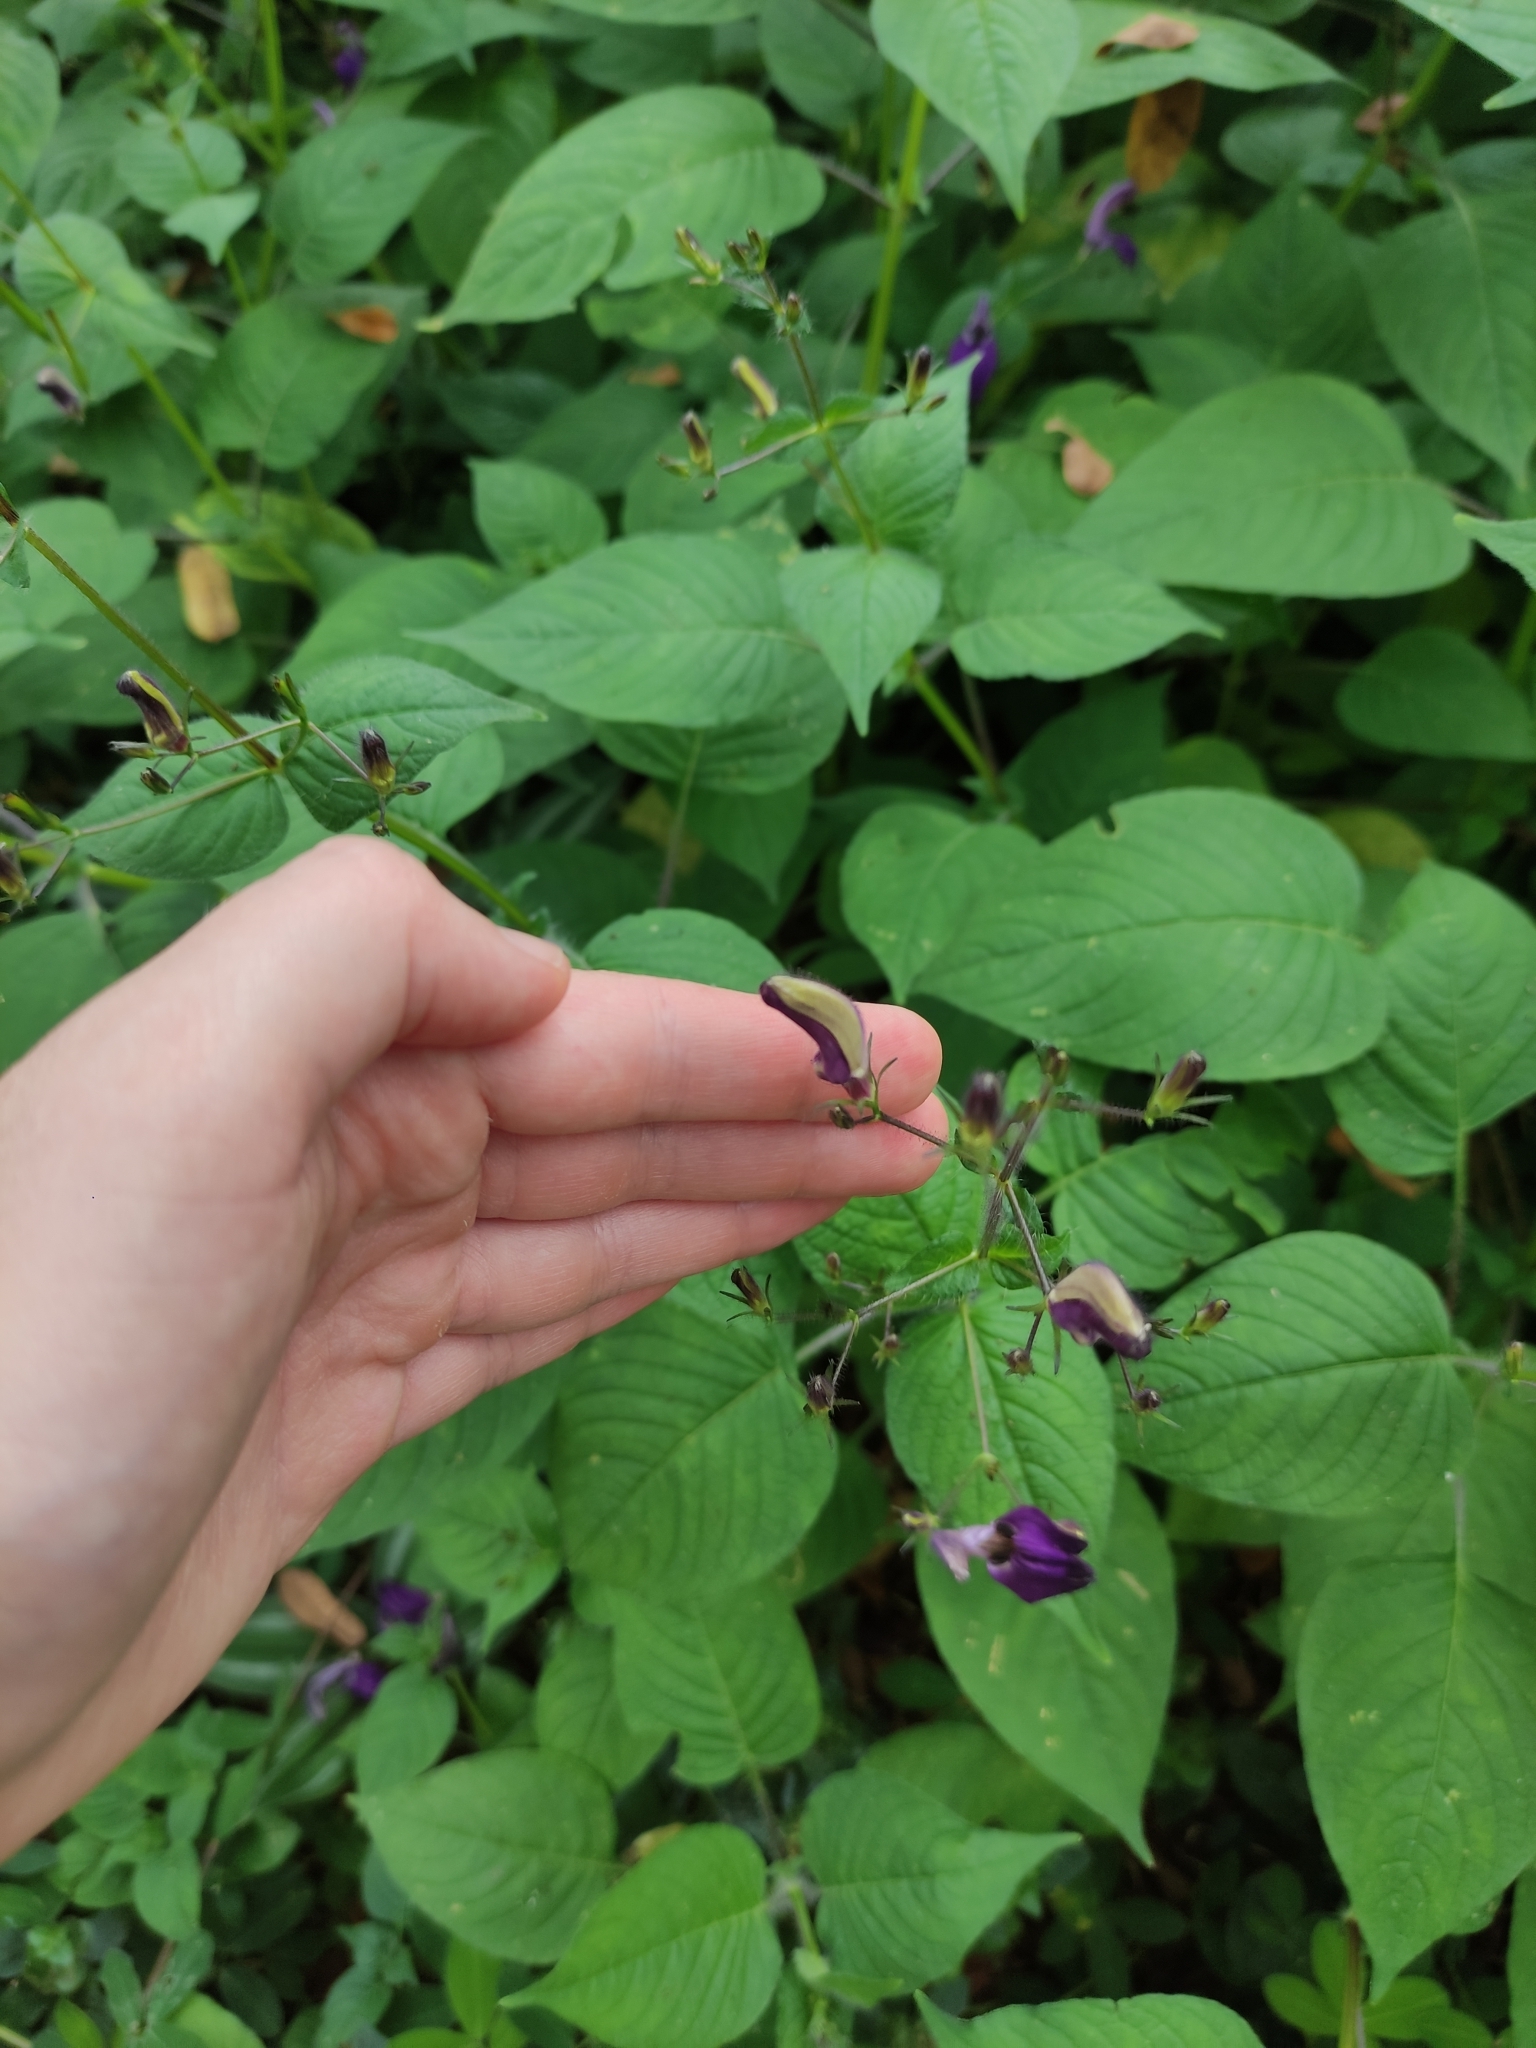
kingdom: Plantae
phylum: Tracheophyta
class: Magnoliopsida
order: Lamiales
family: Acanthaceae
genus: Brillantaisia
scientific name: Brillantaisia lamium
